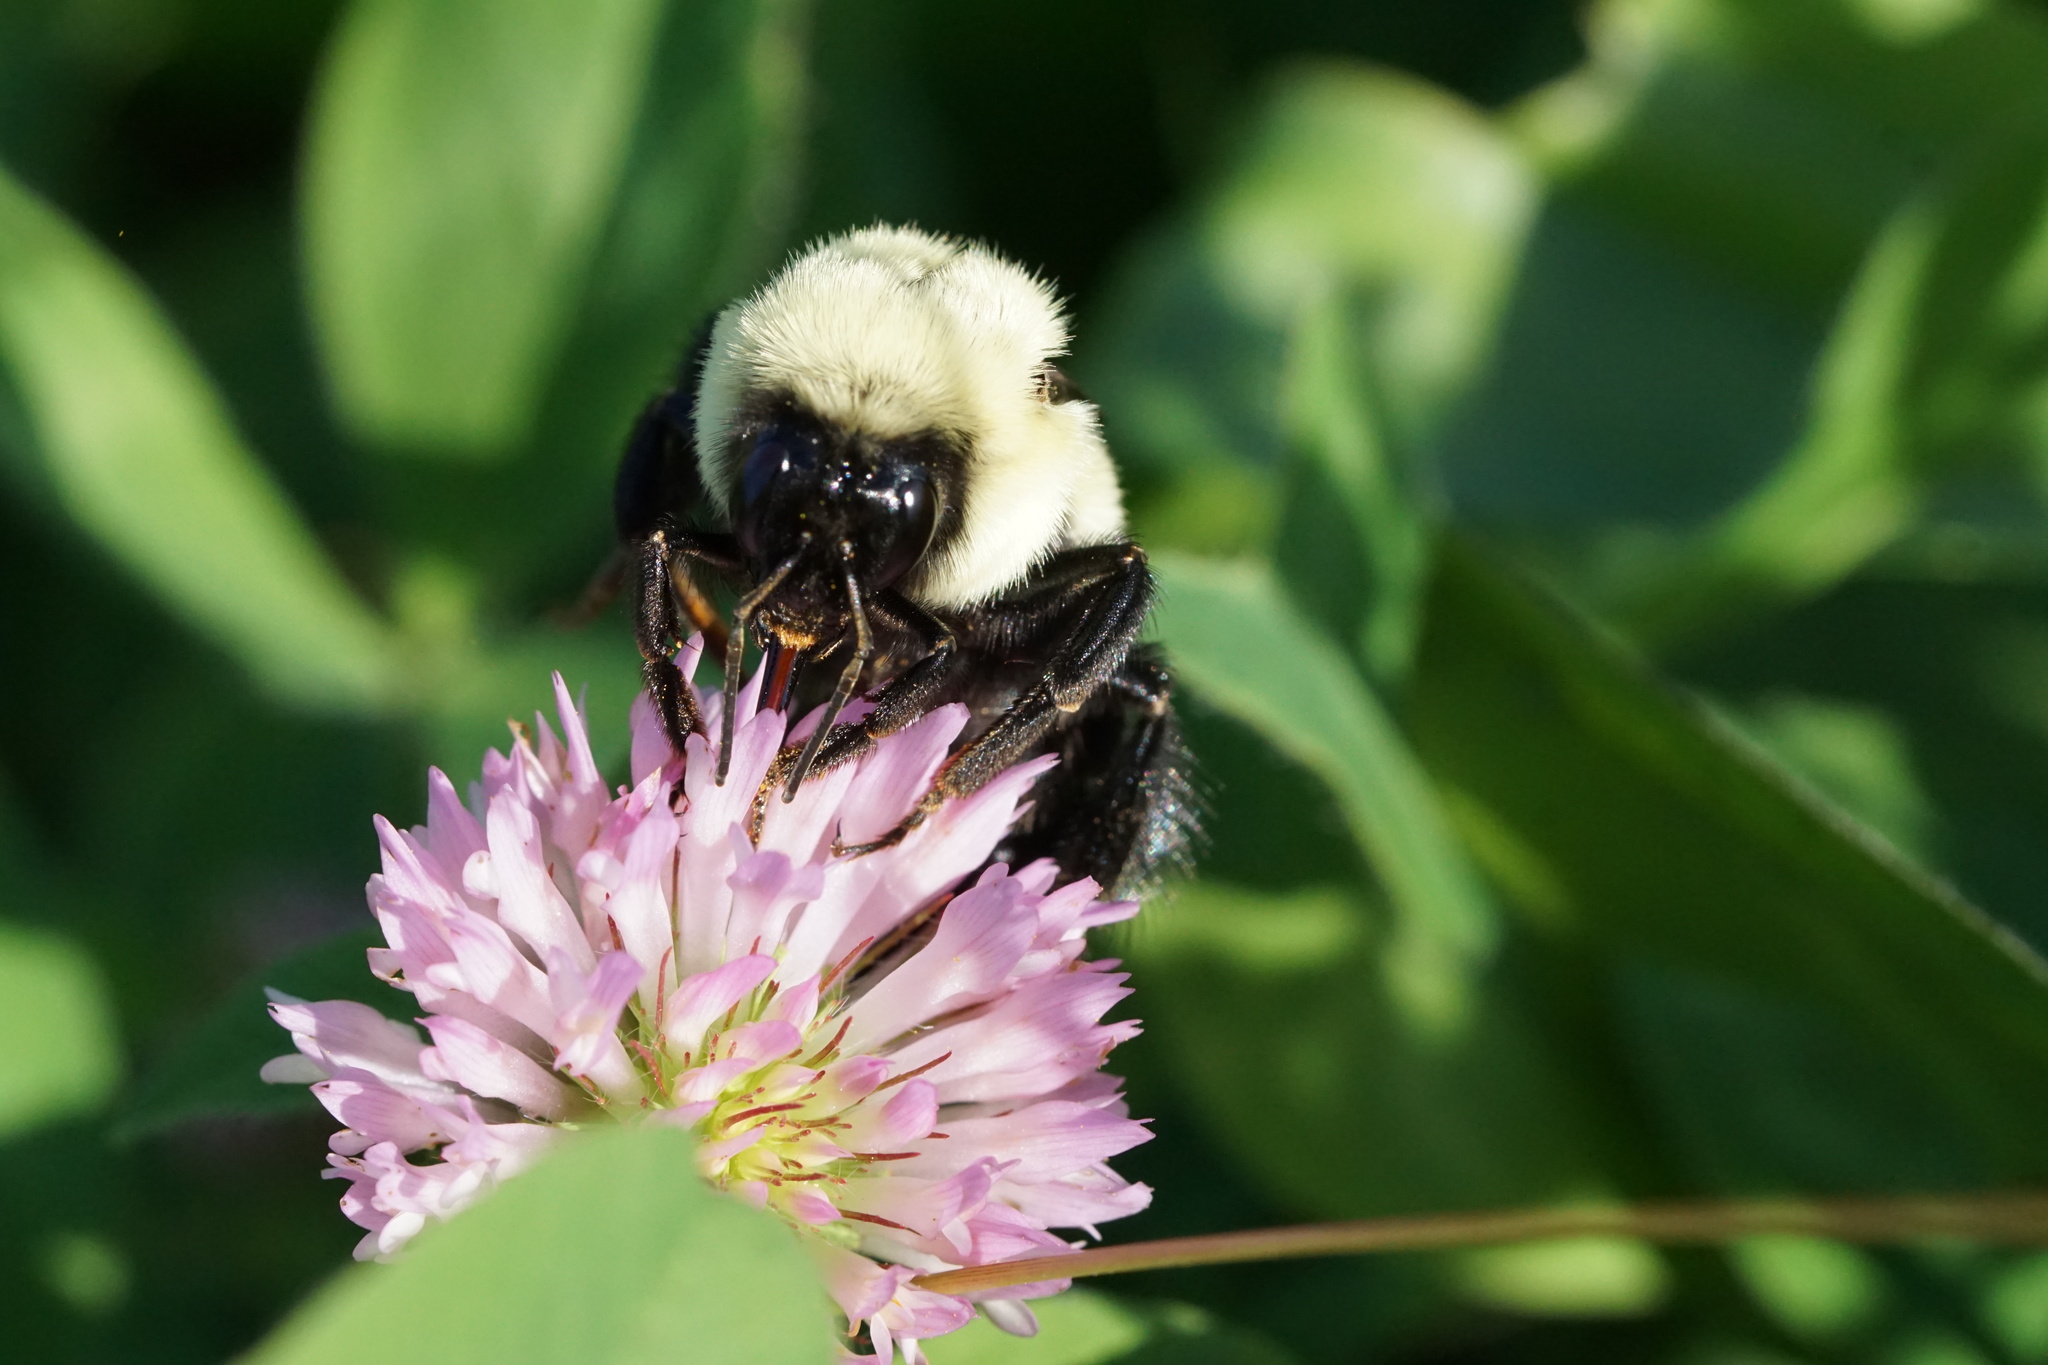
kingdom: Animalia
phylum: Arthropoda
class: Insecta
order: Hymenoptera
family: Apidae
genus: Bombus
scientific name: Bombus impatiens
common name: Common eastern bumble bee
